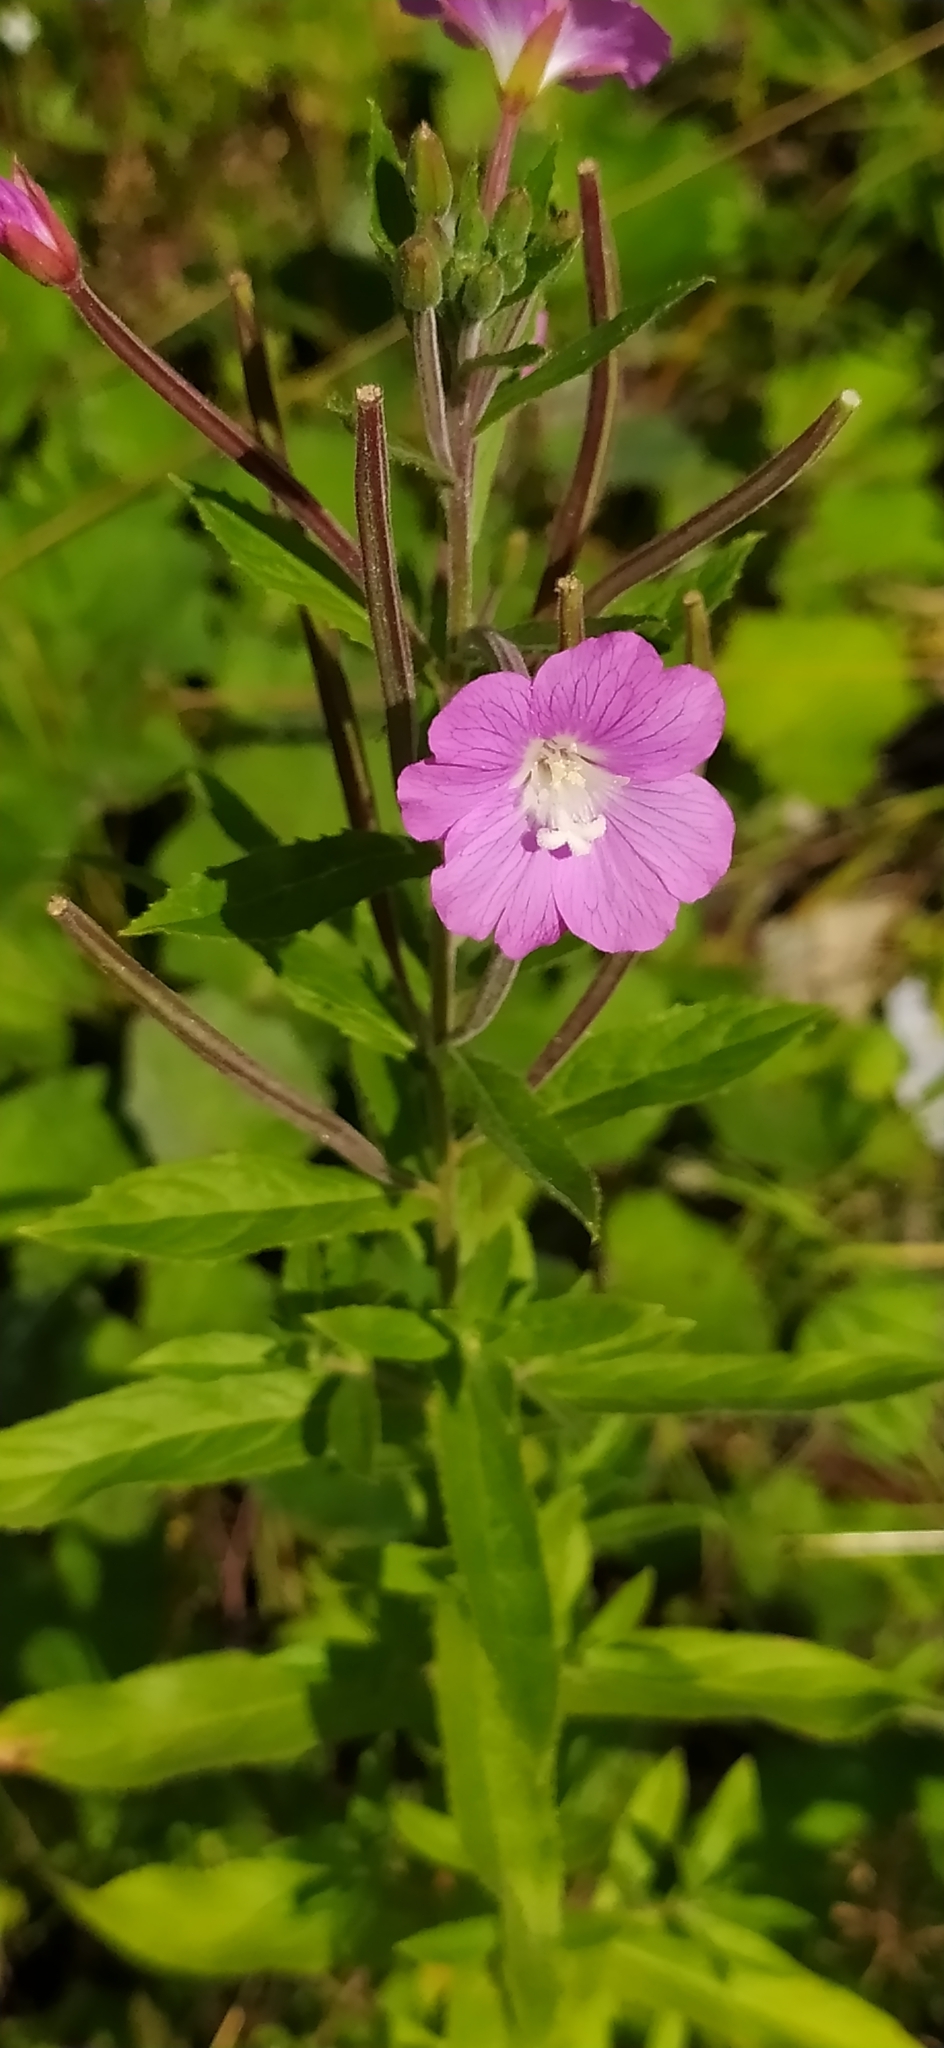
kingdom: Plantae
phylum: Tracheophyta
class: Magnoliopsida
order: Myrtales
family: Onagraceae
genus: Epilobium
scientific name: Epilobium hirsutum
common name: Great willowherb
